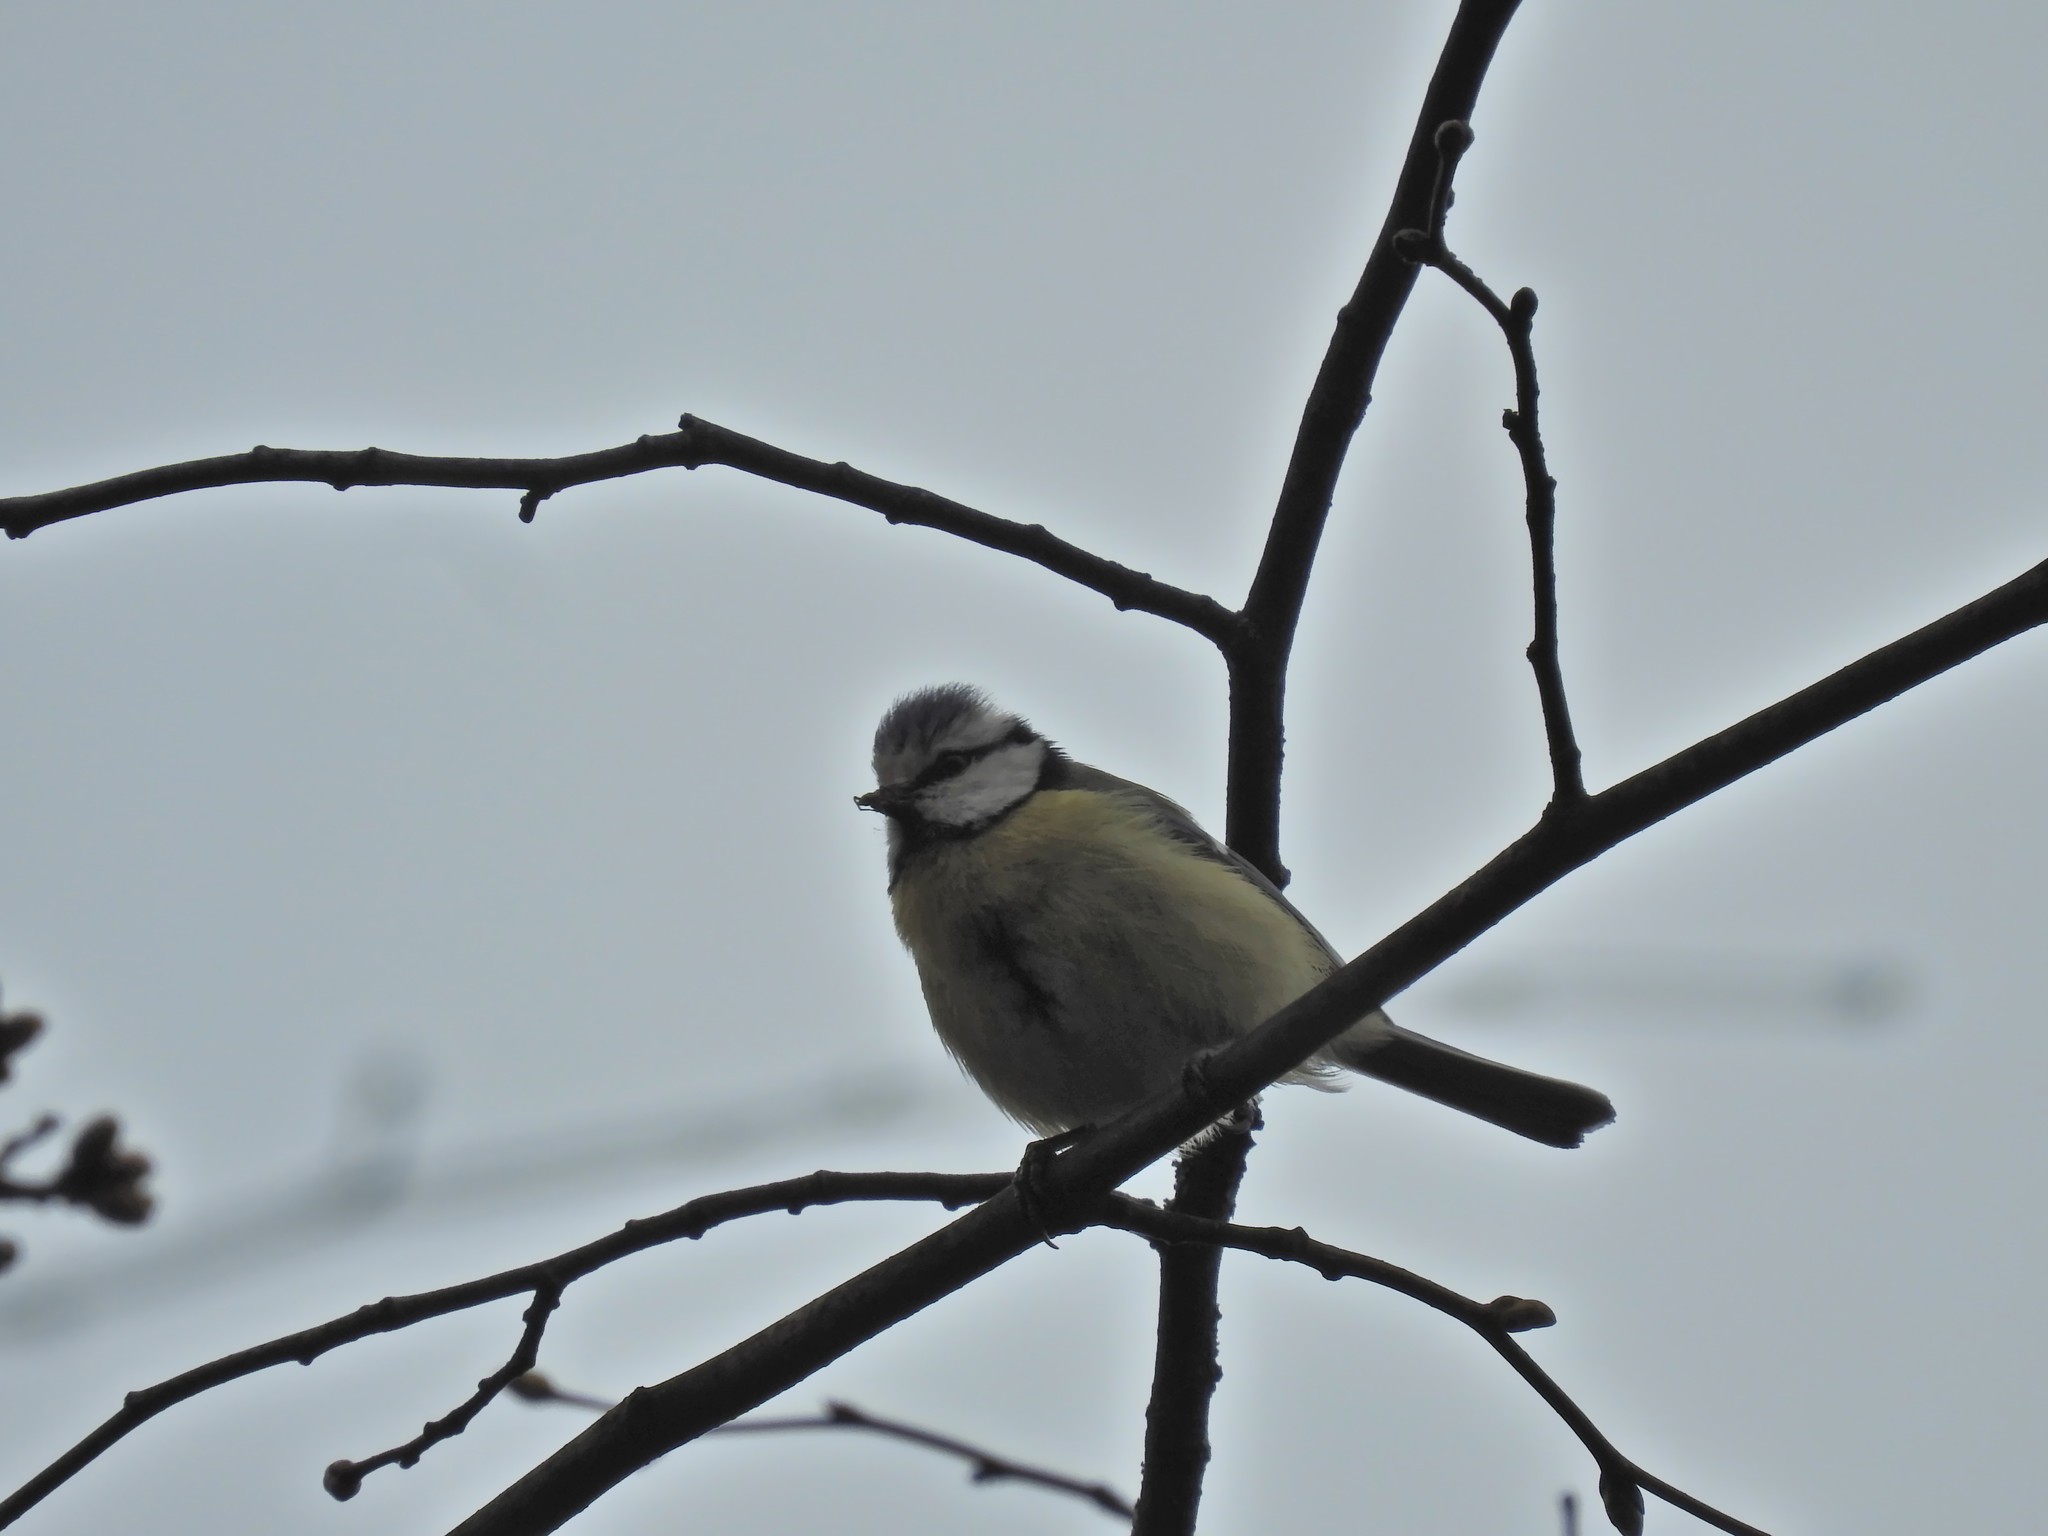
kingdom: Animalia
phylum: Chordata
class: Aves
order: Passeriformes
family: Paridae
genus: Cyanistes
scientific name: Cyanistes caeruleus
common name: Eurasian blue tit
